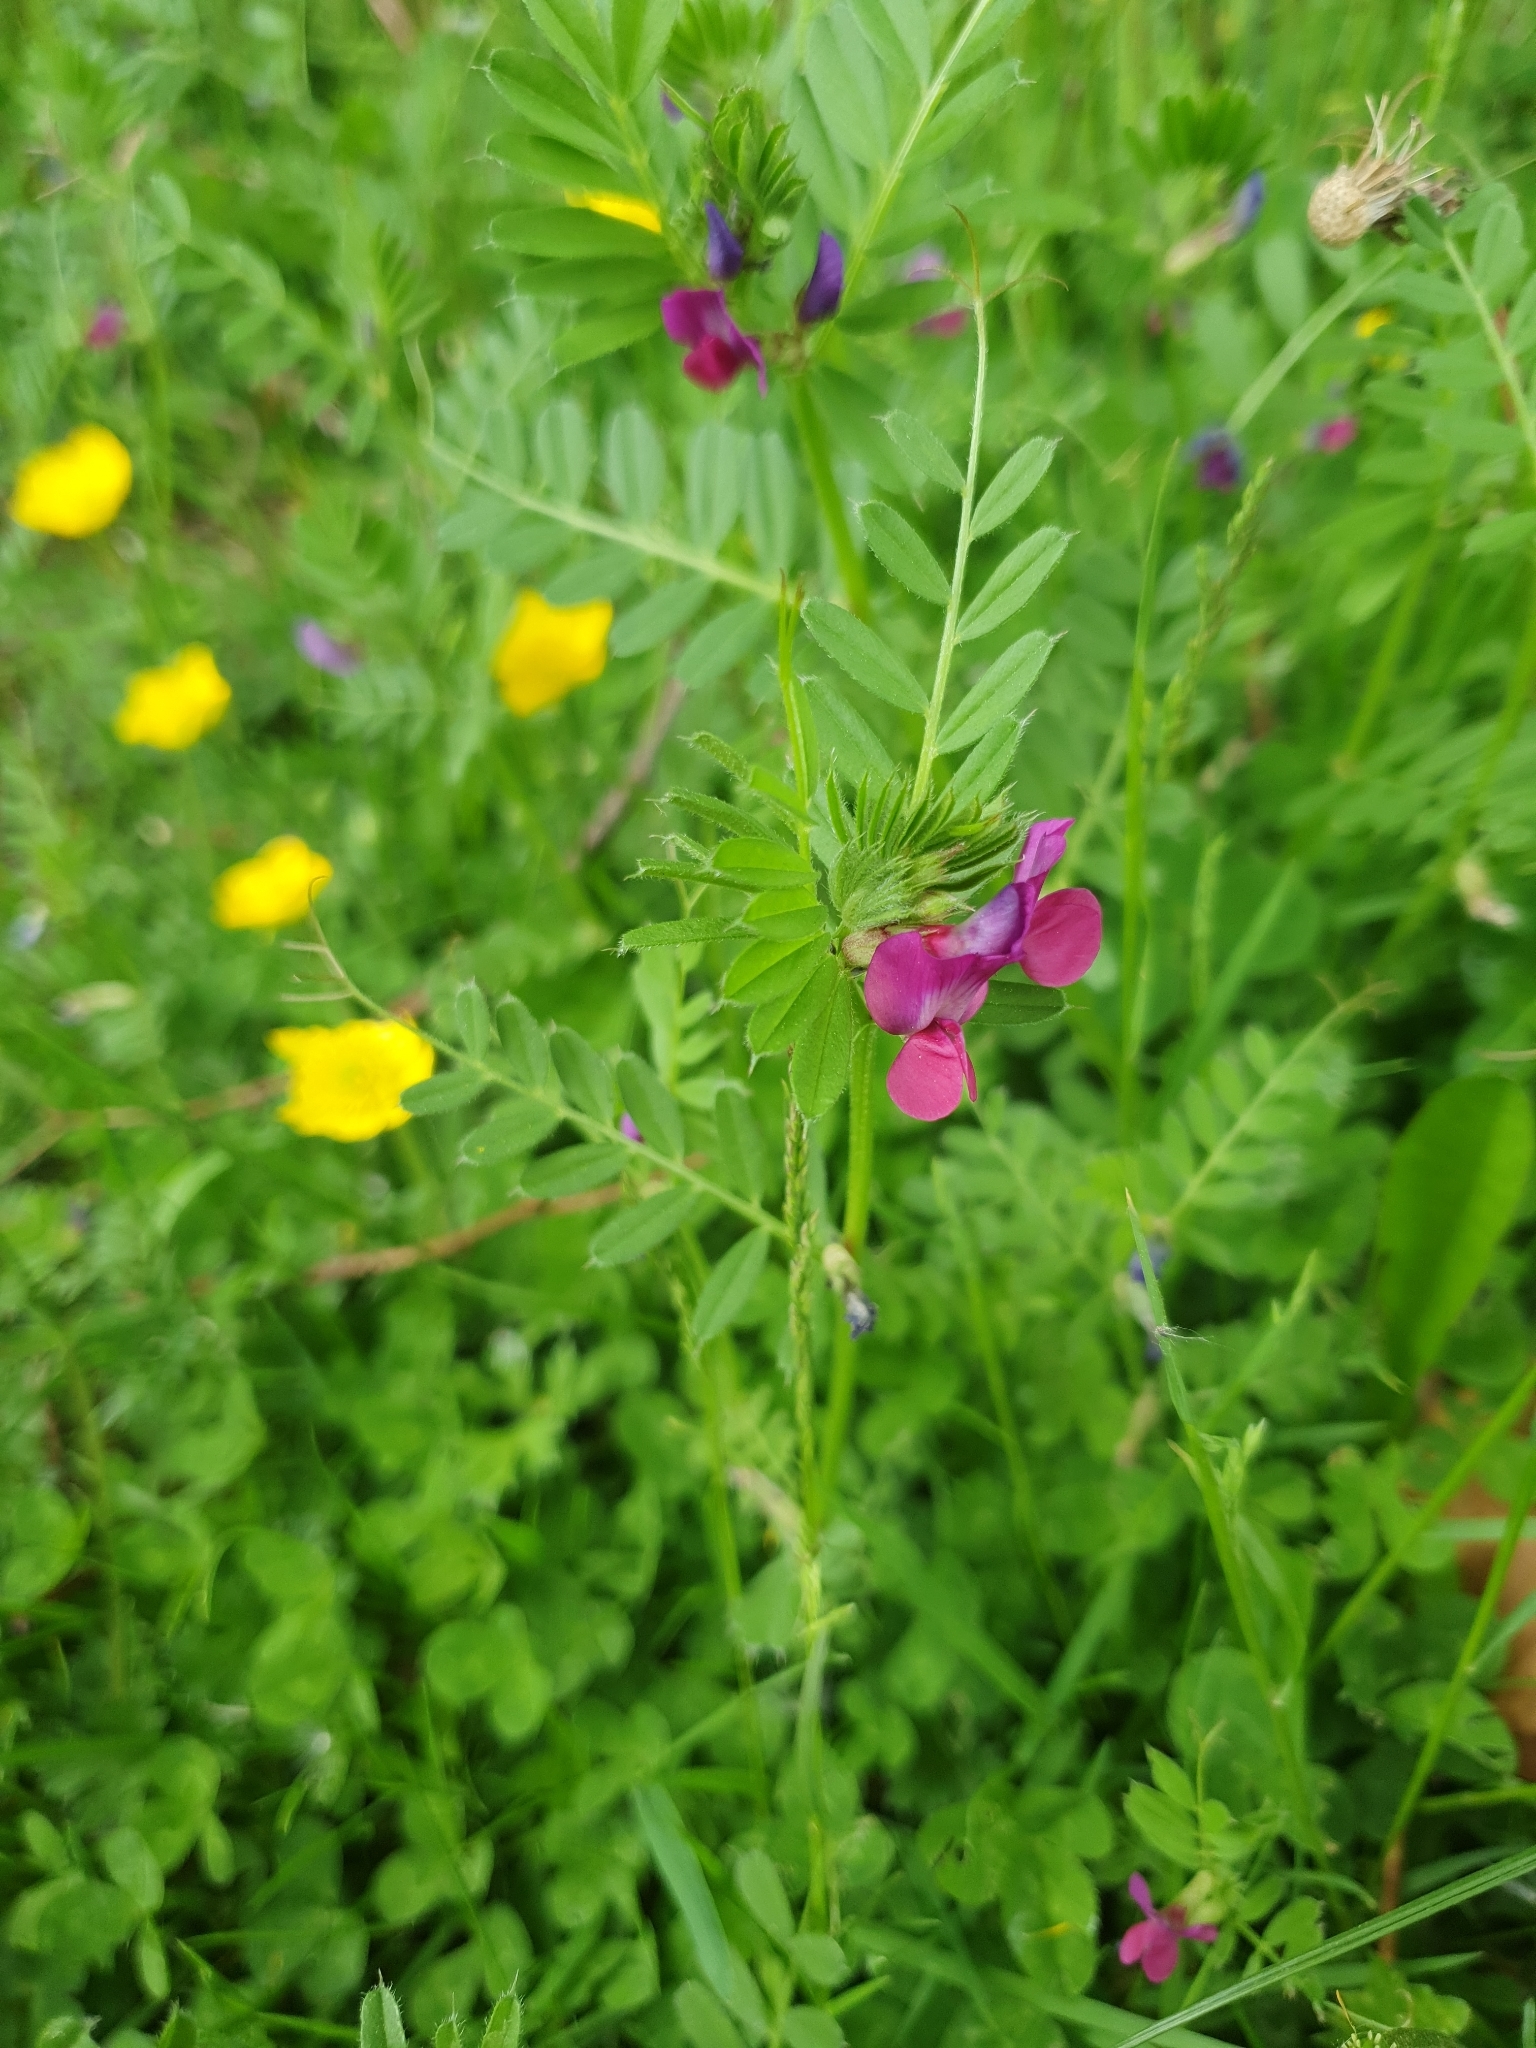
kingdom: Plantae
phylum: Tracheophyta
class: Magnoliopsida
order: Fabales
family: Fabaceae
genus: Vicia
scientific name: Vicia sativa
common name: Garden vetch
